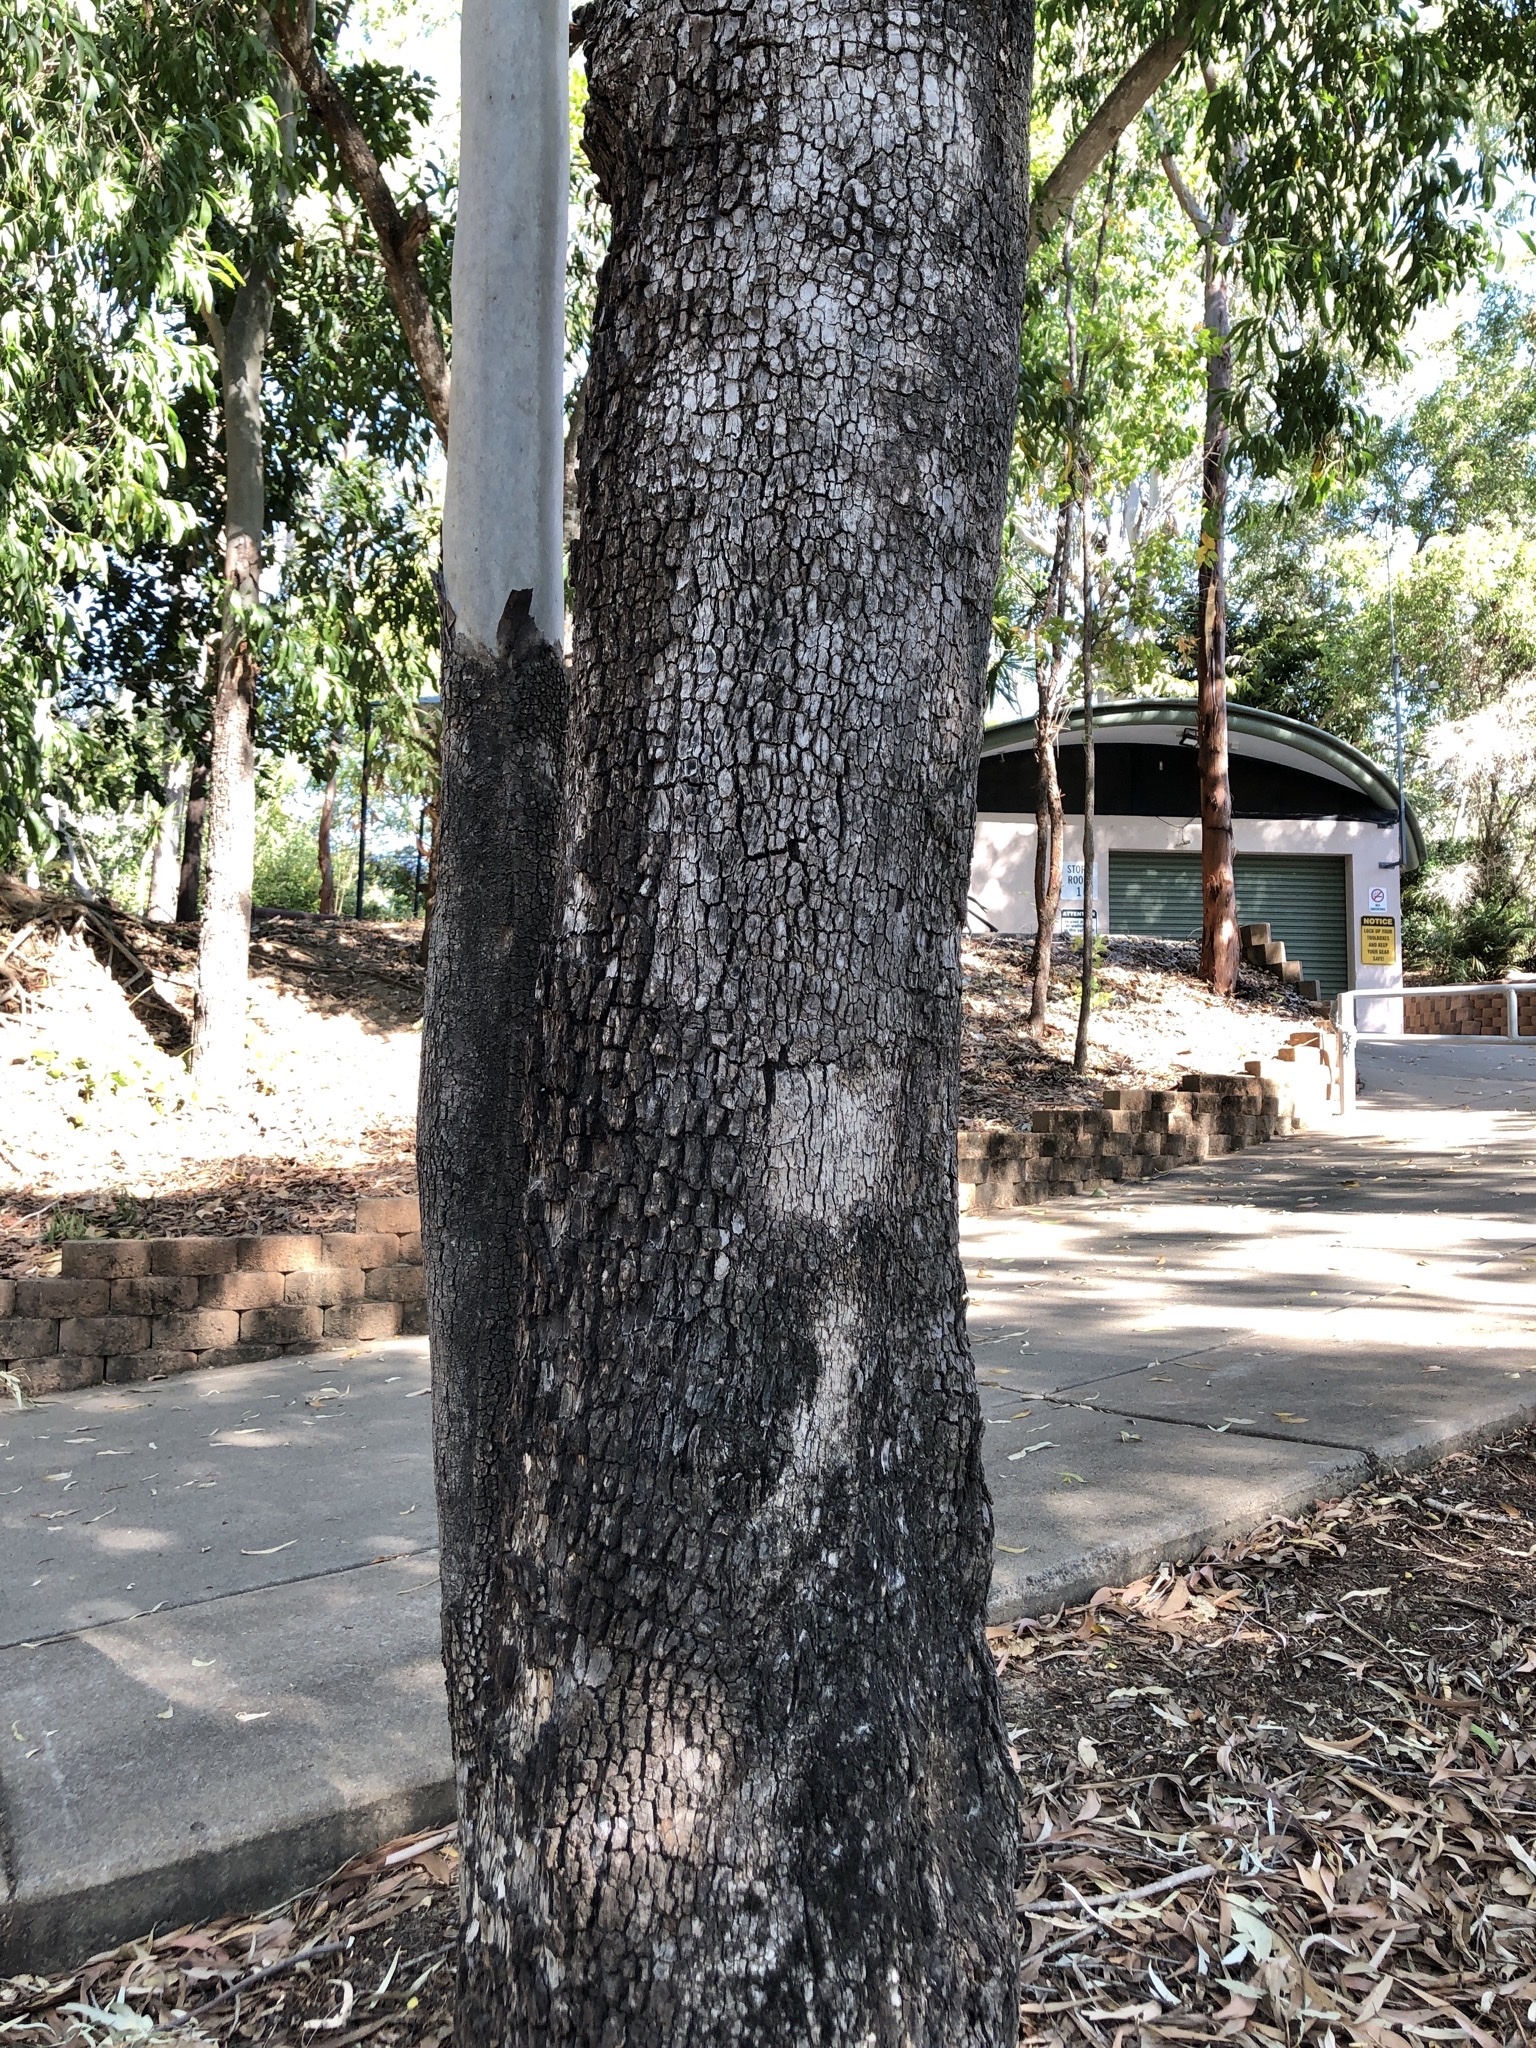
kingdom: Plantae
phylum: Tracheophyta
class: Magnoliopsida
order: Myrtales
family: Myrtaceae
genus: Corymbia
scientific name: Corymbia tessellaris
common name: Carbeen
